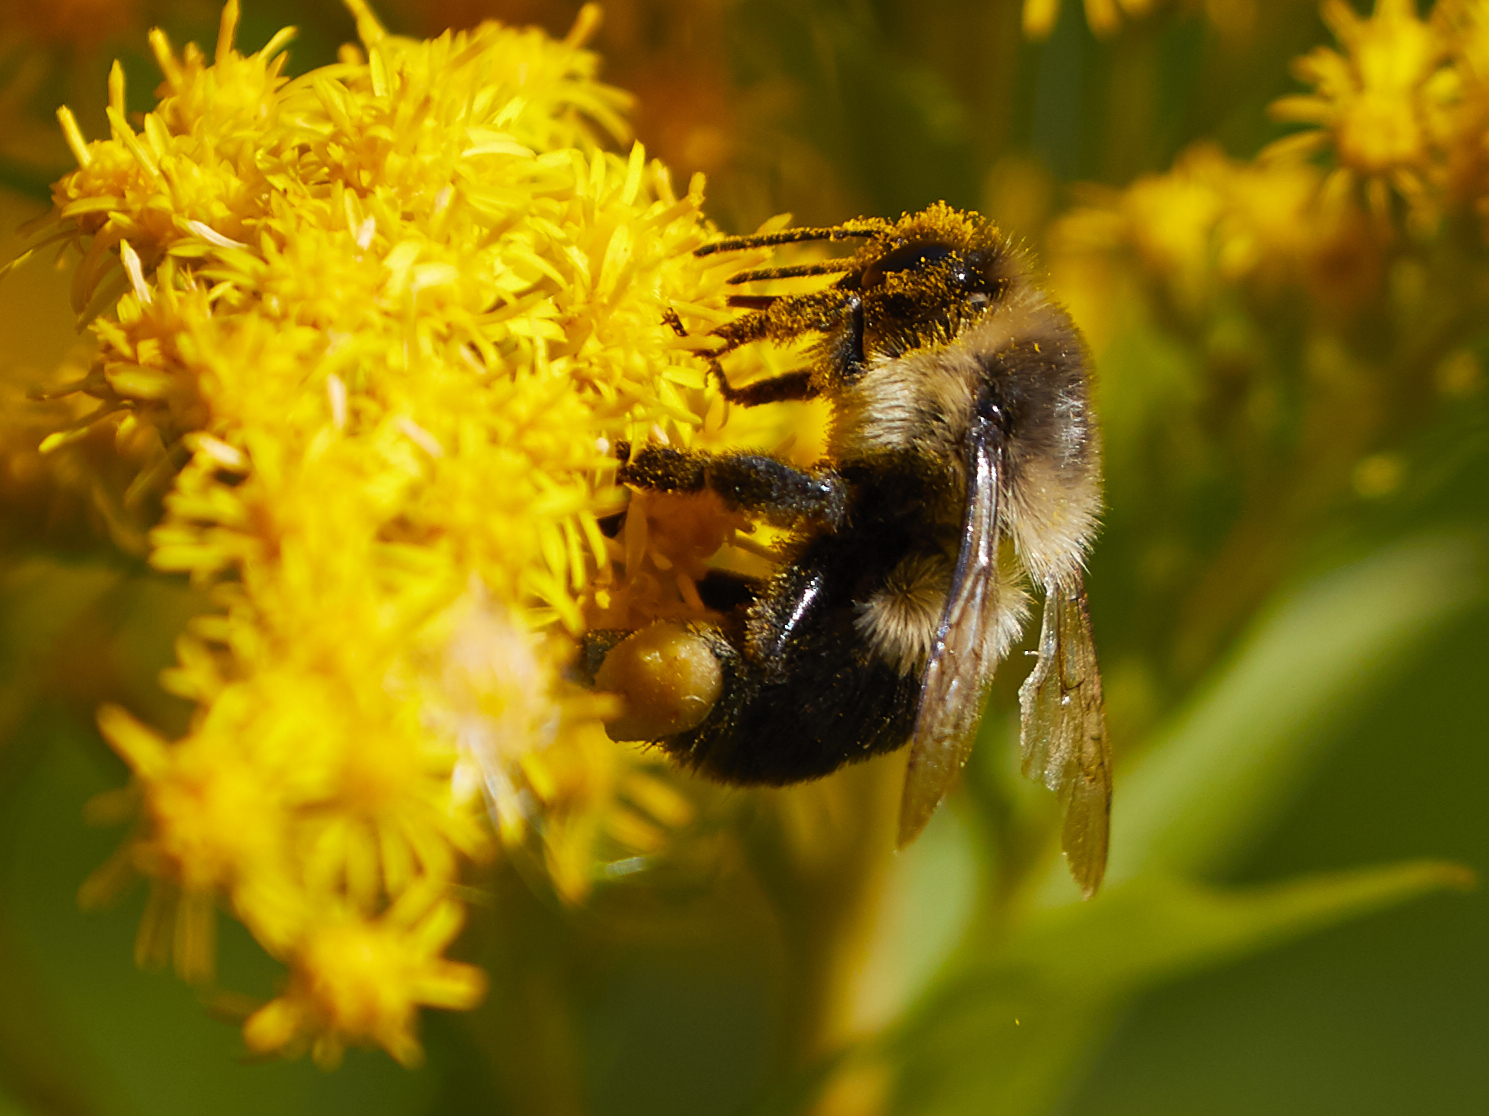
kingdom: Animalia
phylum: Arthropoda
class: Insecta
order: Hymenoptera
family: Apidae
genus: Bombus
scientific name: Bombus impatiens
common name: Common eastern bumble bee
